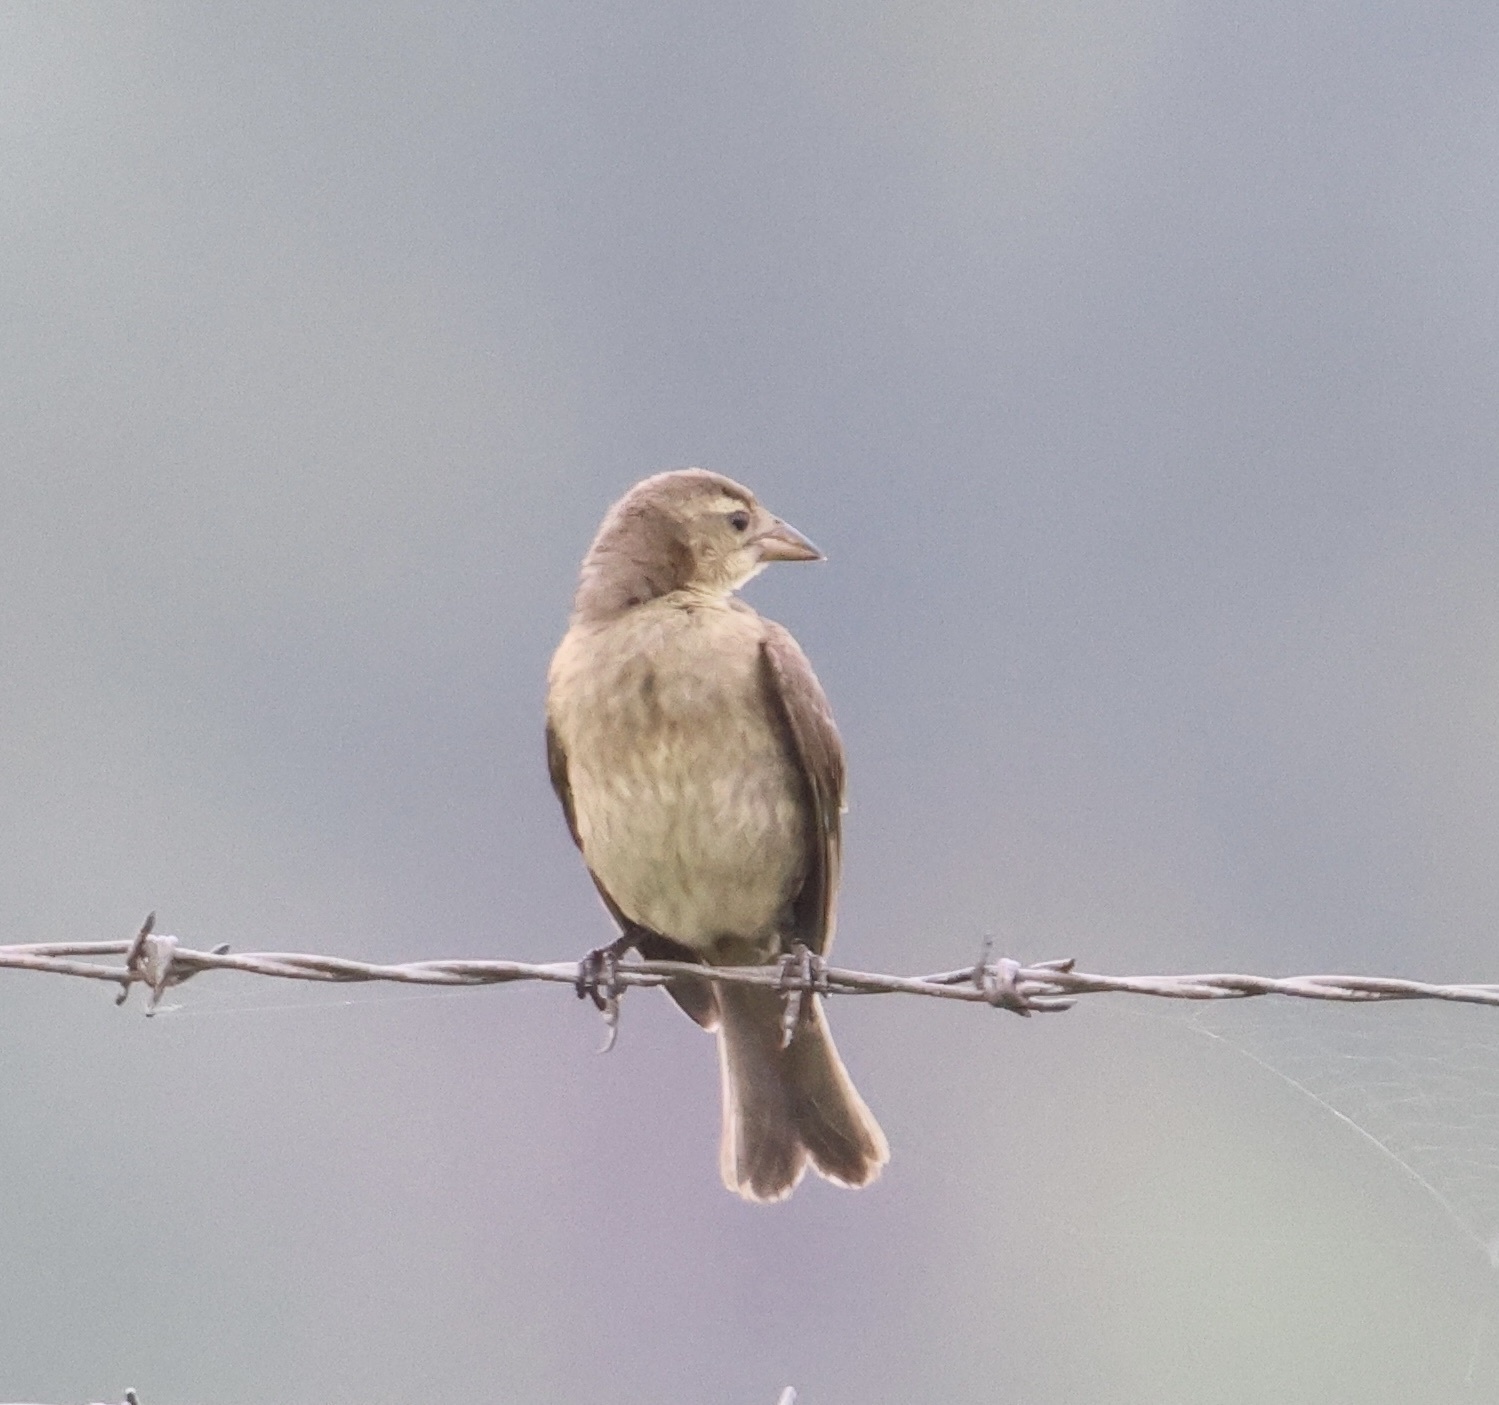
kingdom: Animalia
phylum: Chordata
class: Aves
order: Passeriformes
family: Icteridae
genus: Molothrus
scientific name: Molothrus bonariensis
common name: Shiny cowbird
